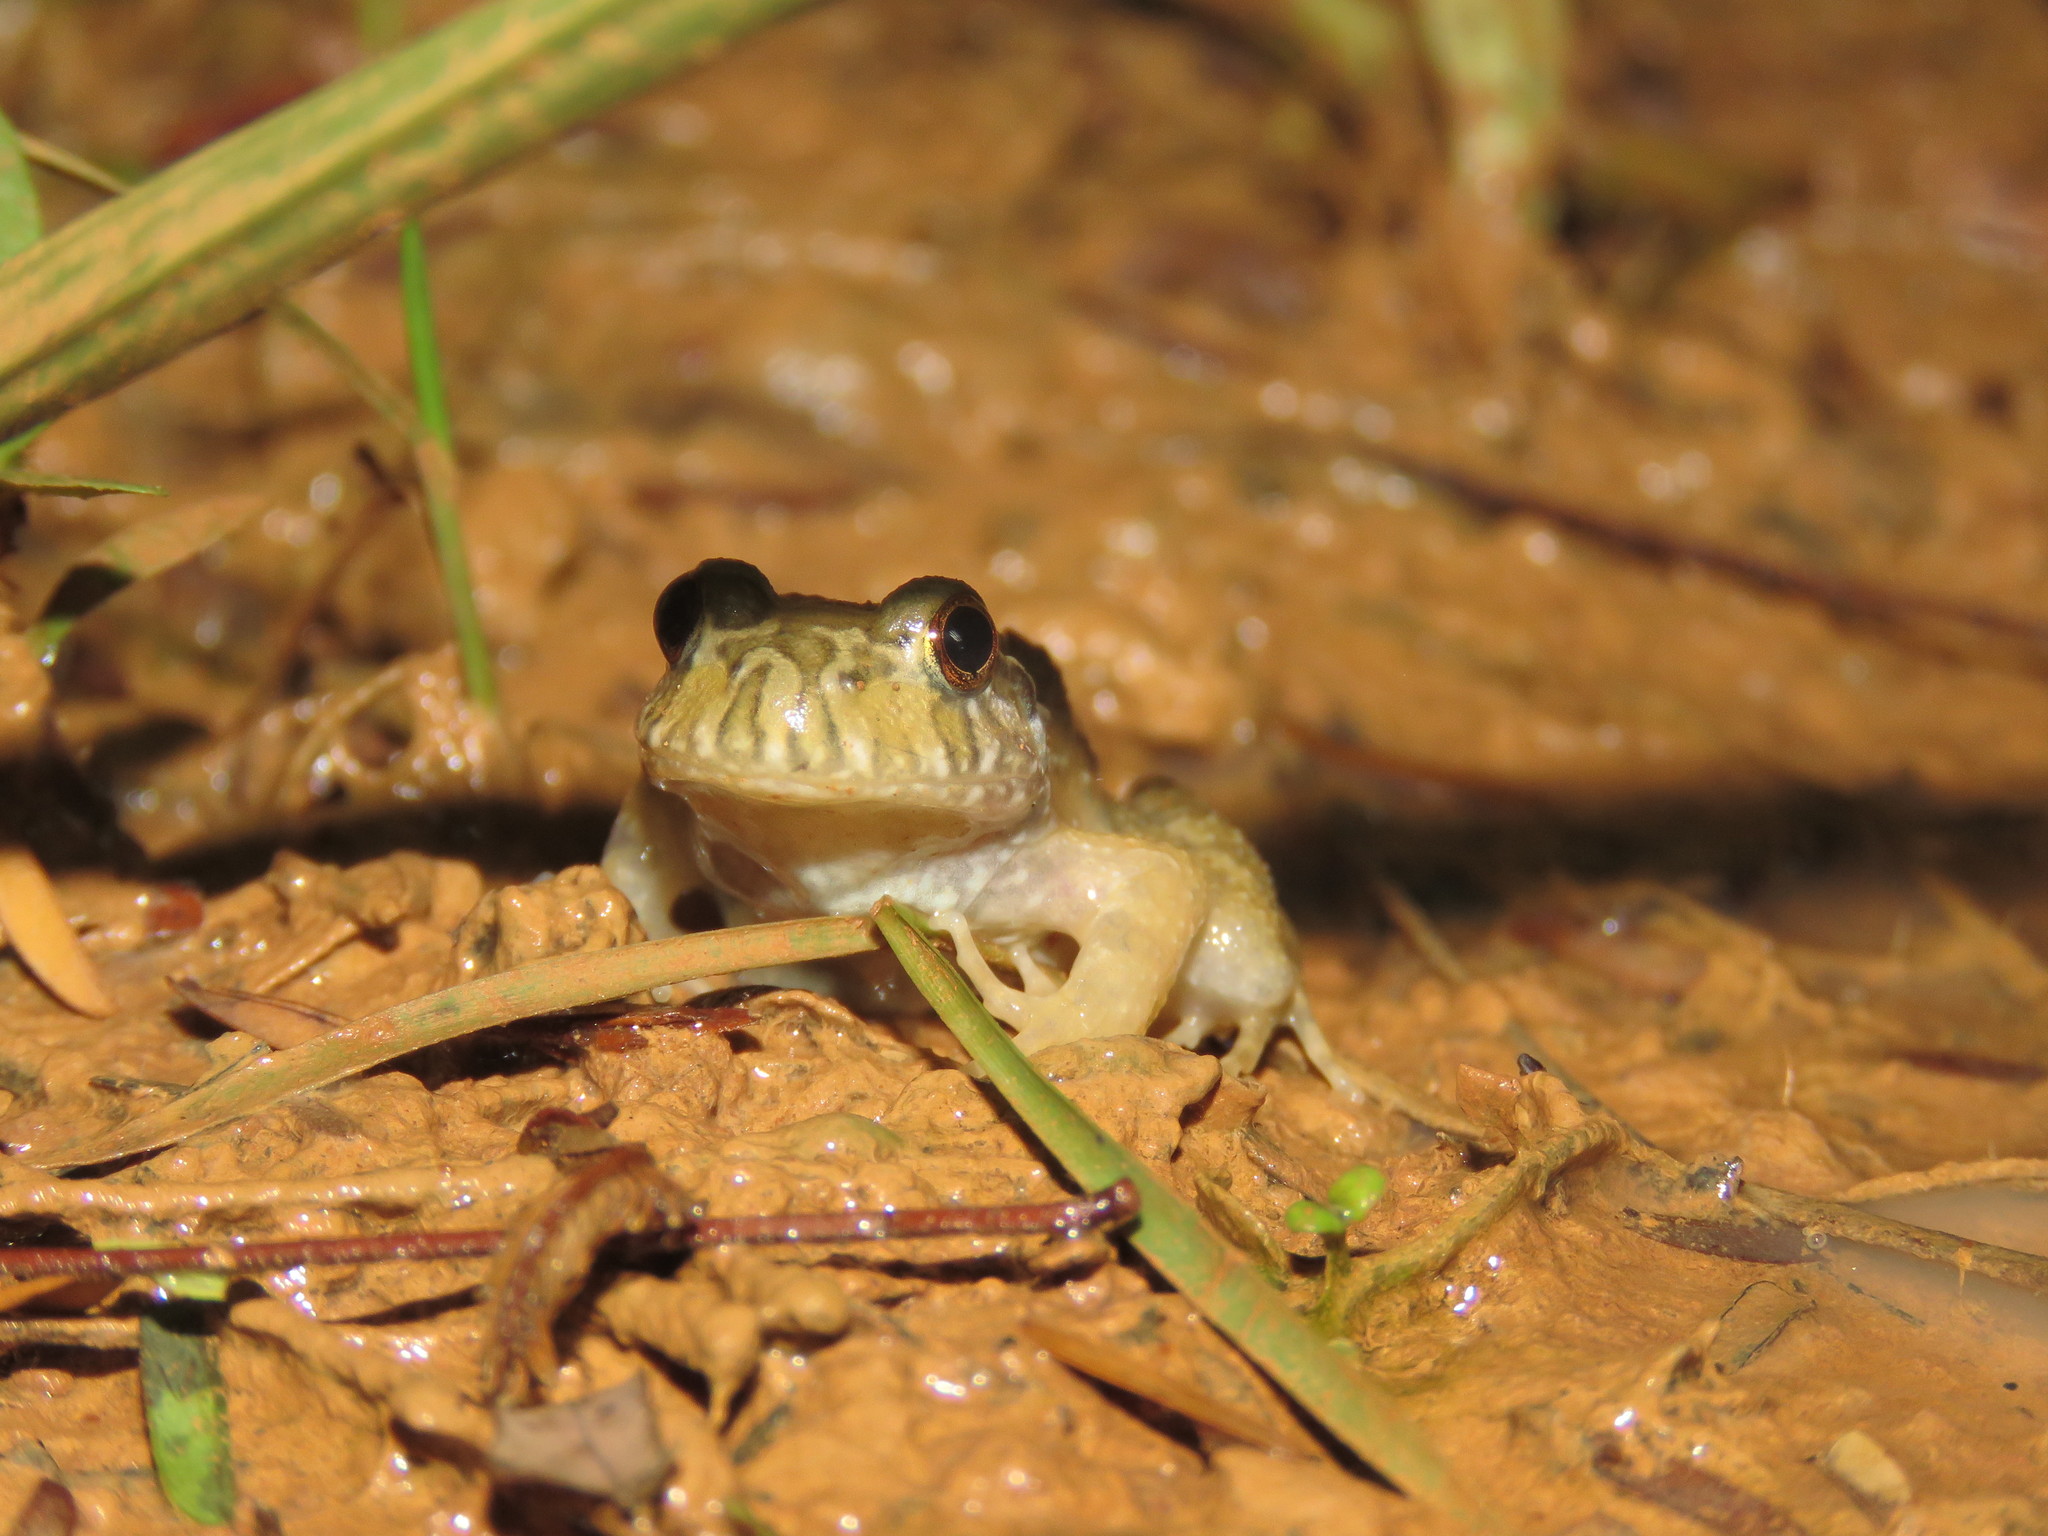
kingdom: Animalia
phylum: Chordata
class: Amphibia
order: Anura
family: Leptodactylidae
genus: Leptodactylus
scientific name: Leptodactylus knudseni
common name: Knudsen's frog
